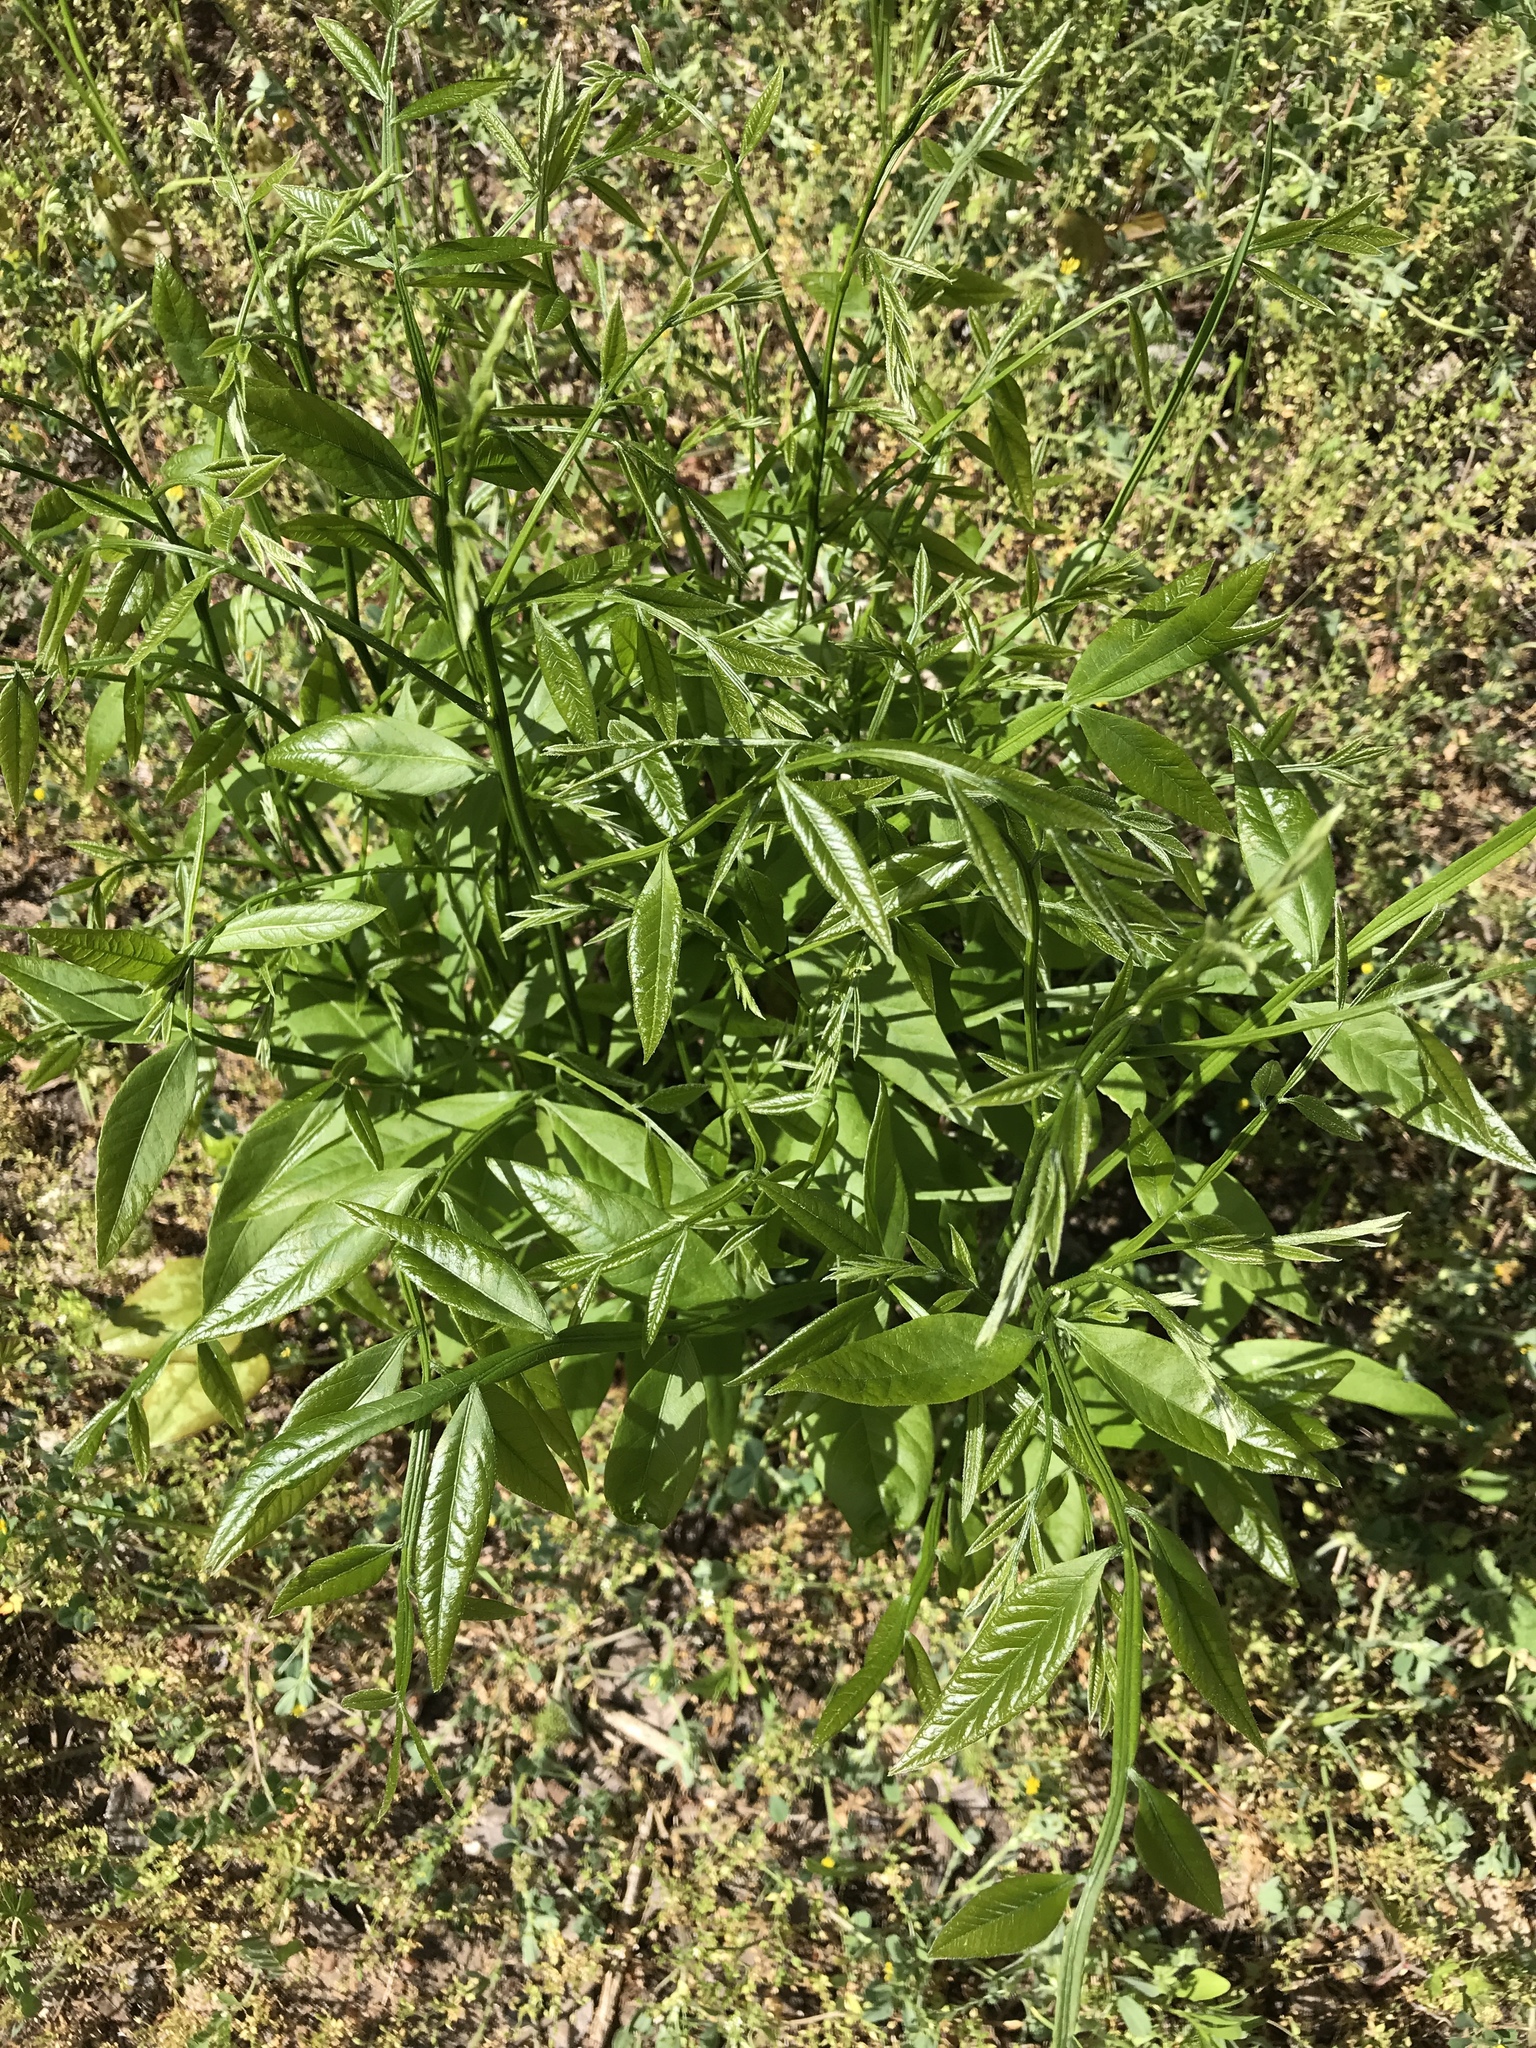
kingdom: Plantae
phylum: Tracheophyta
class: Magnoliopsida
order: Sapindales
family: Sapindaceae
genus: Sapindus
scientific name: Sapindus drummondii
